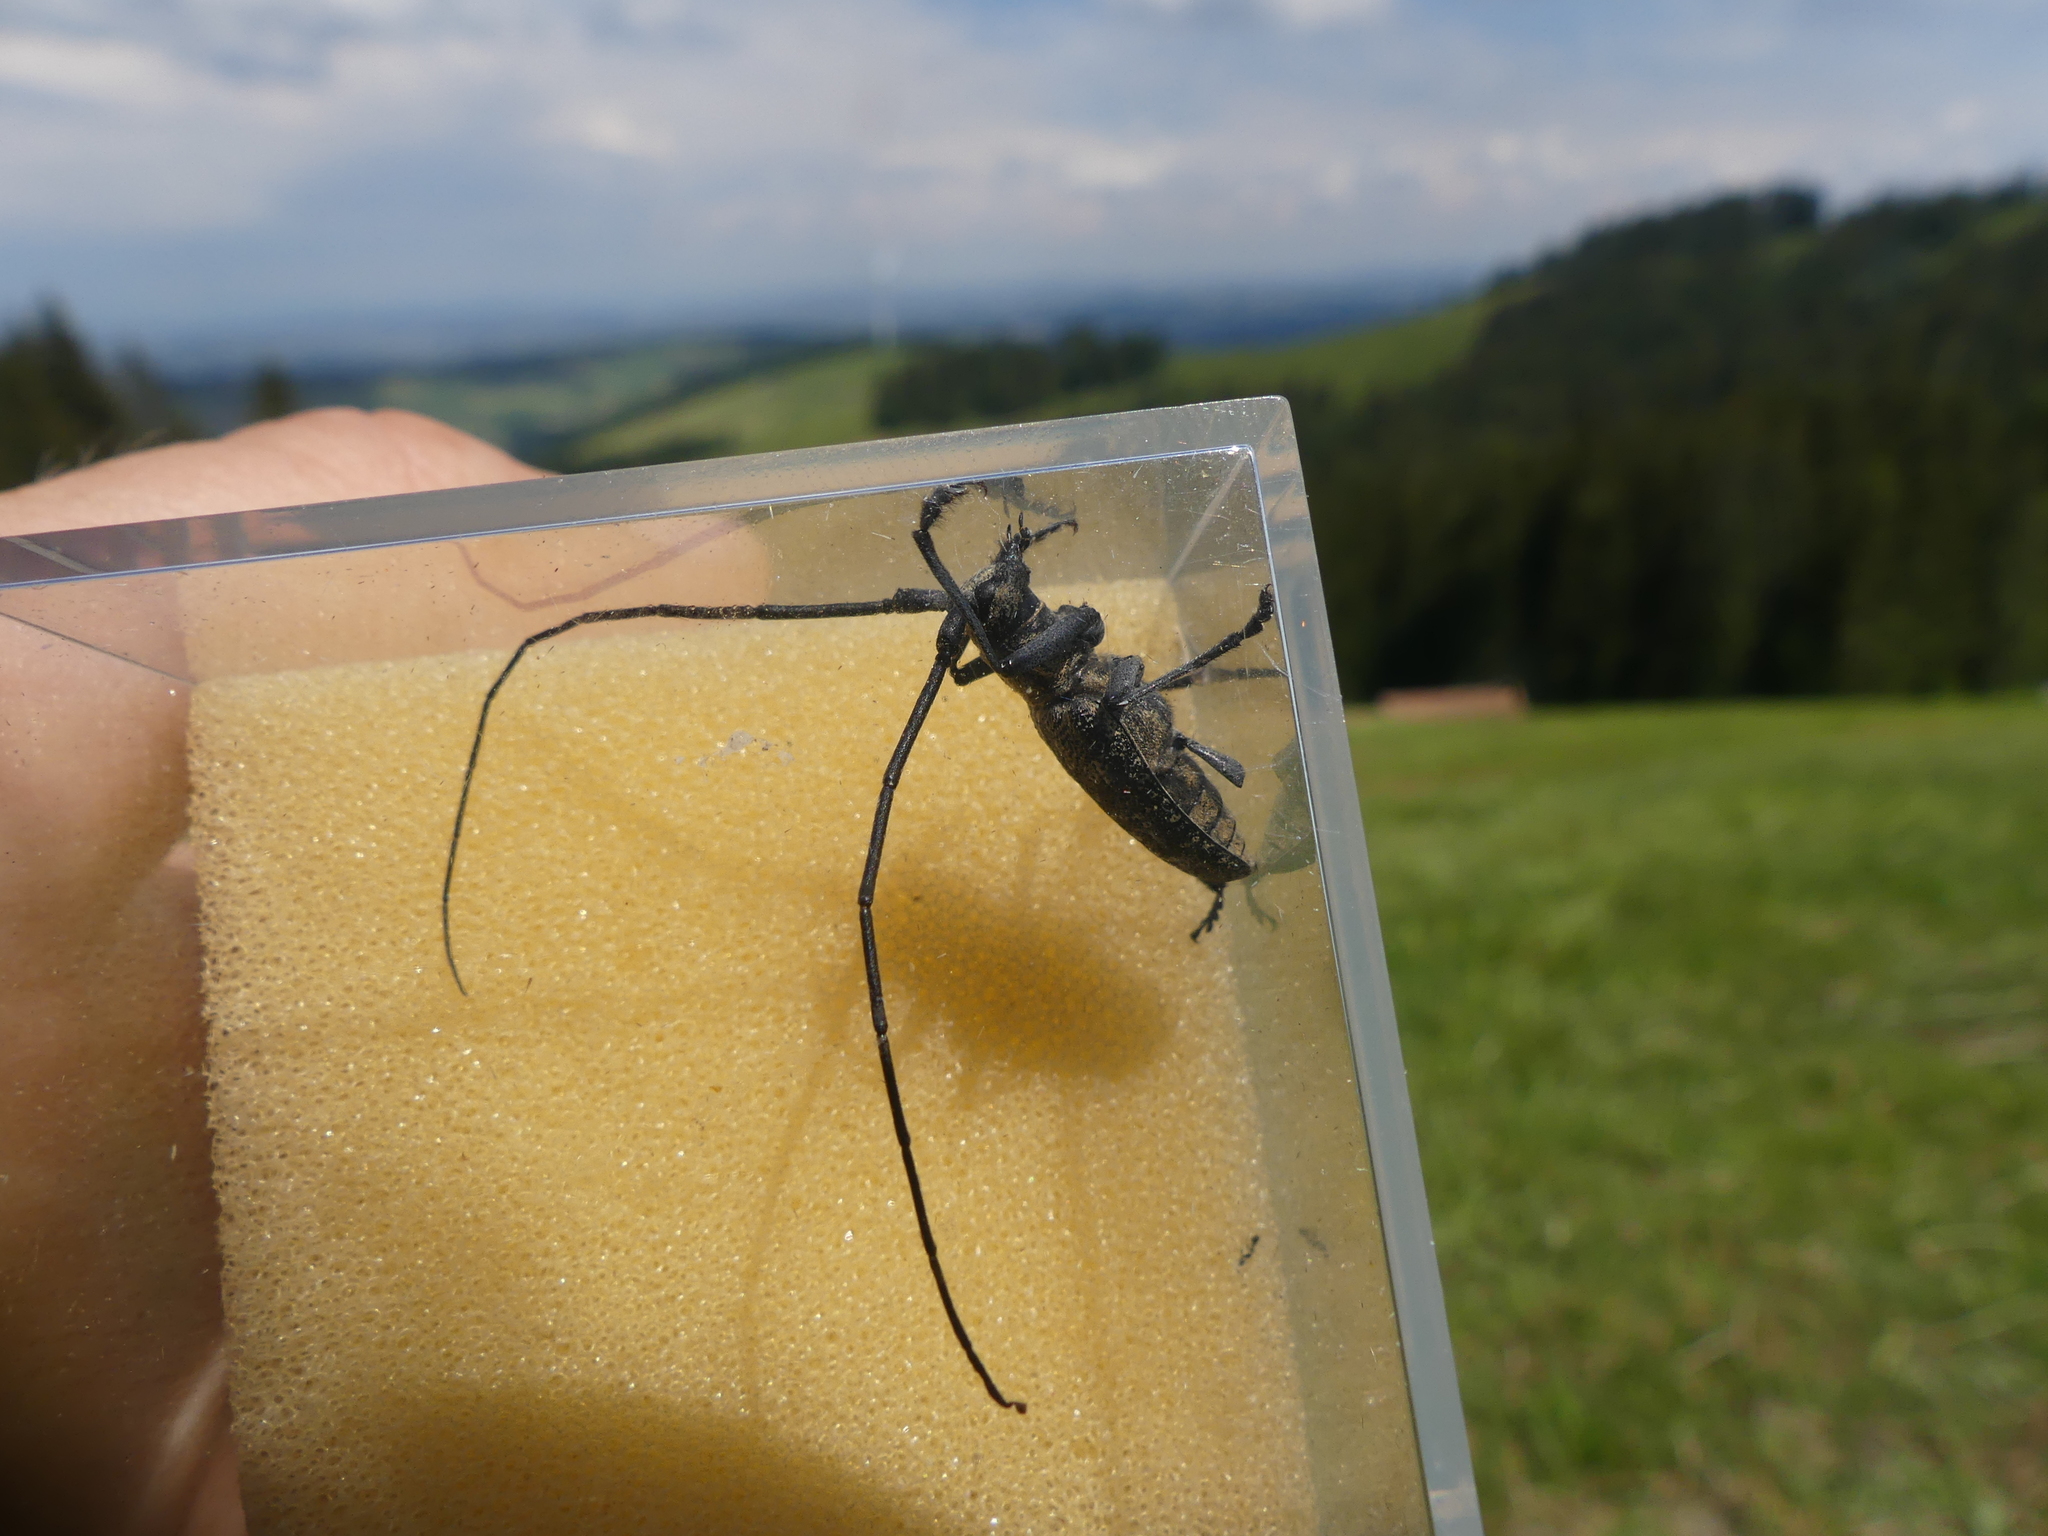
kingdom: Animalia
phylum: Arthropoda
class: Insecta
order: Coleoptera
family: Cerambycidae
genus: Monochamus
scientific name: Monochamus sutor
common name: Pine sawyer
